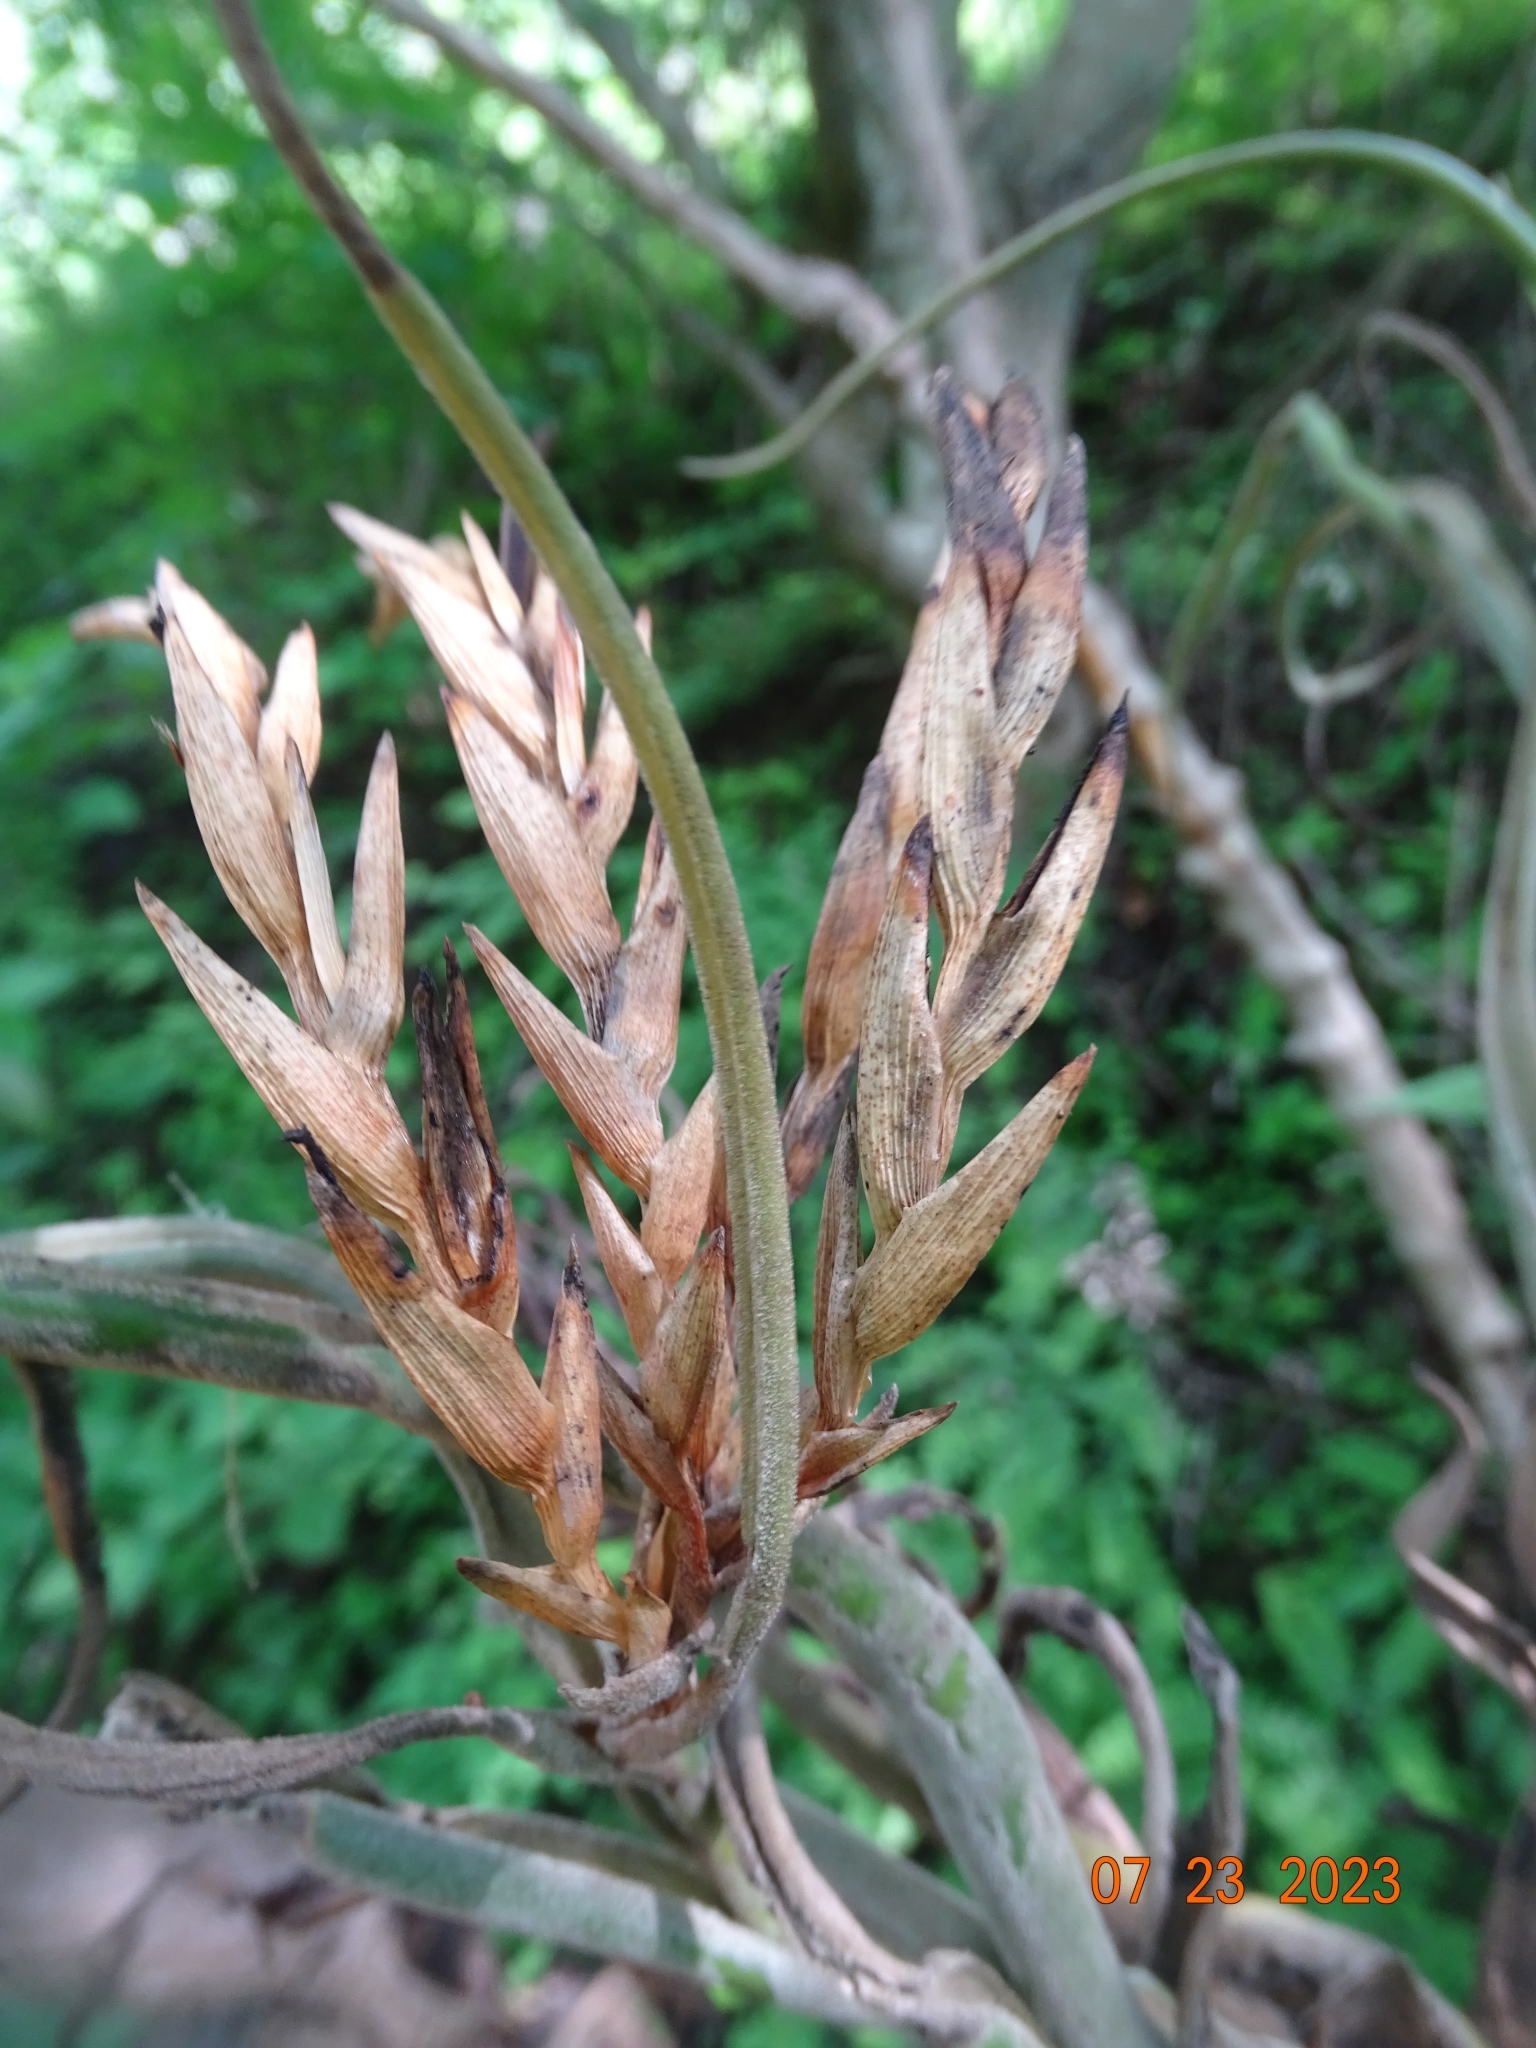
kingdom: Plantae
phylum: Tracheophyta
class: Liliopsida
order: Poales
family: Bromeliaceae
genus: Tillandsia
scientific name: Tillandsia caput-medusae
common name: Octopus plant
